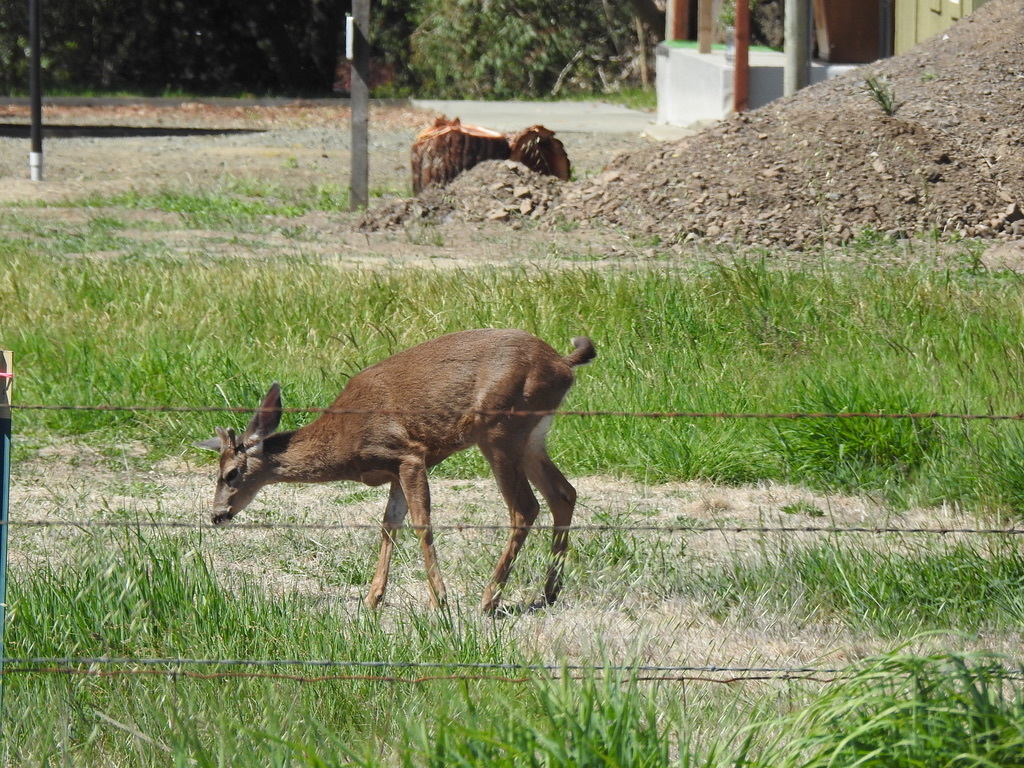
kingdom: Animalia
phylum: Chordata
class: Mammalia
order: Artiodactyla
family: Cervidae
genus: Odocoileus
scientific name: Odocoileus hemionus
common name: Mule deer
